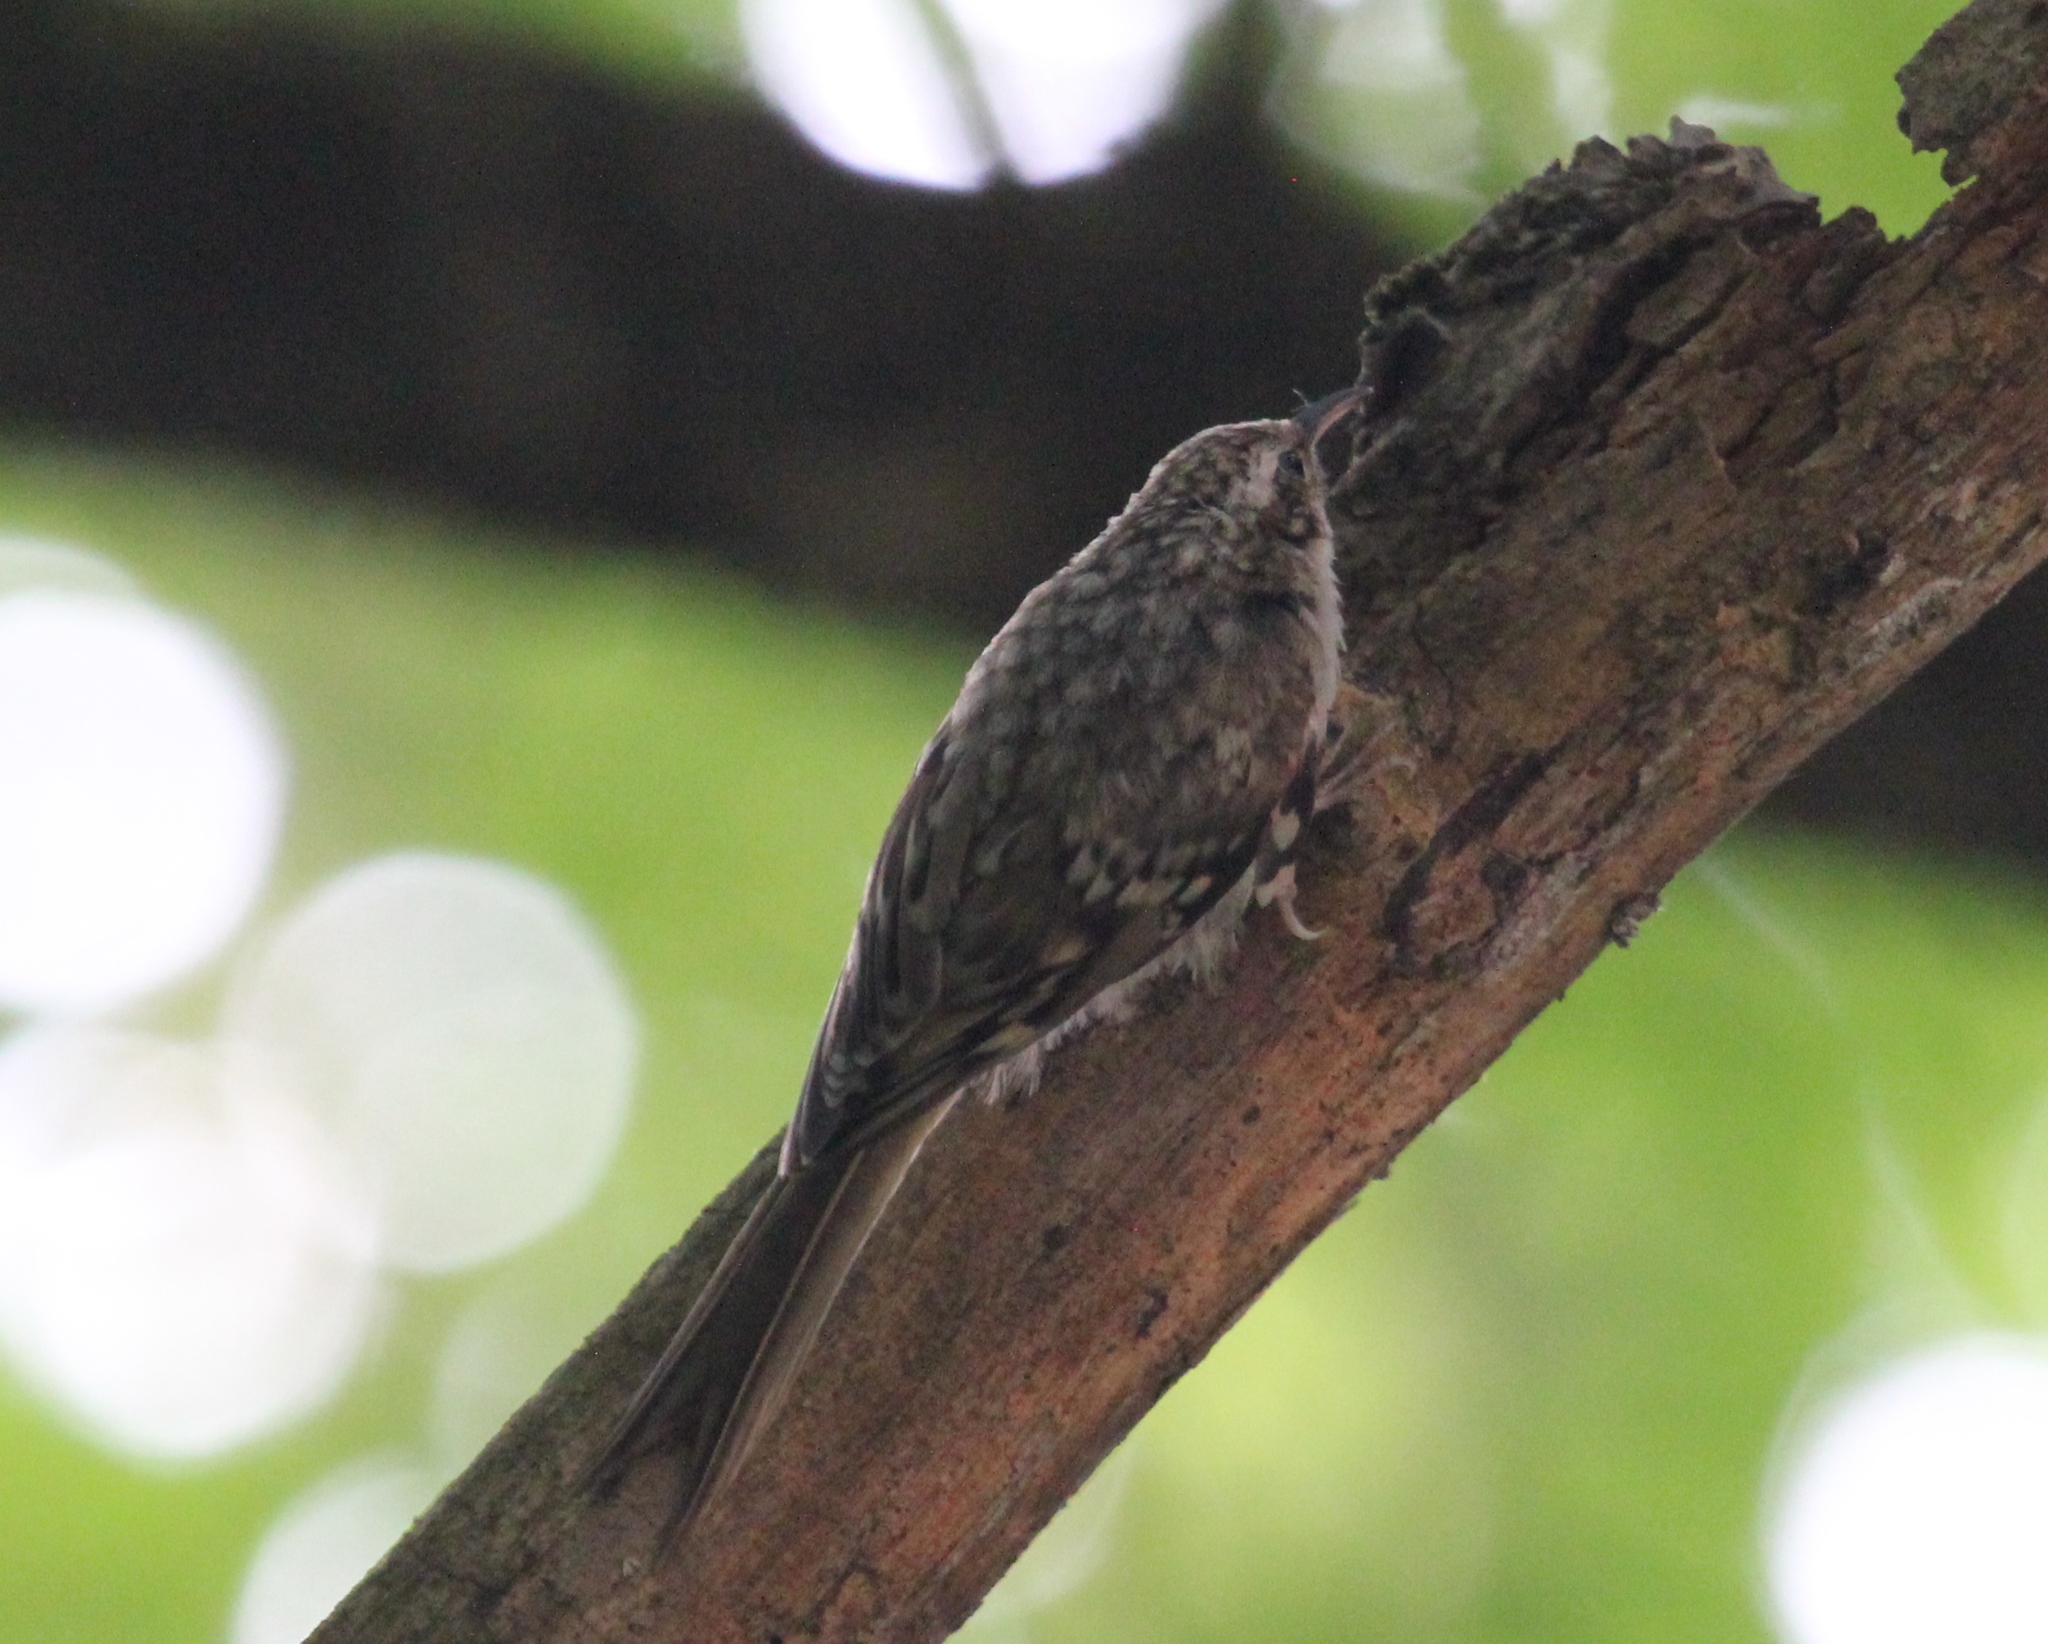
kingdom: Animalia
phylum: Chordata
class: Aves
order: Passeriformes
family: Certhiidae
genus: Certhia
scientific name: Certhia familiaris
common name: Eurasian treecreeper
